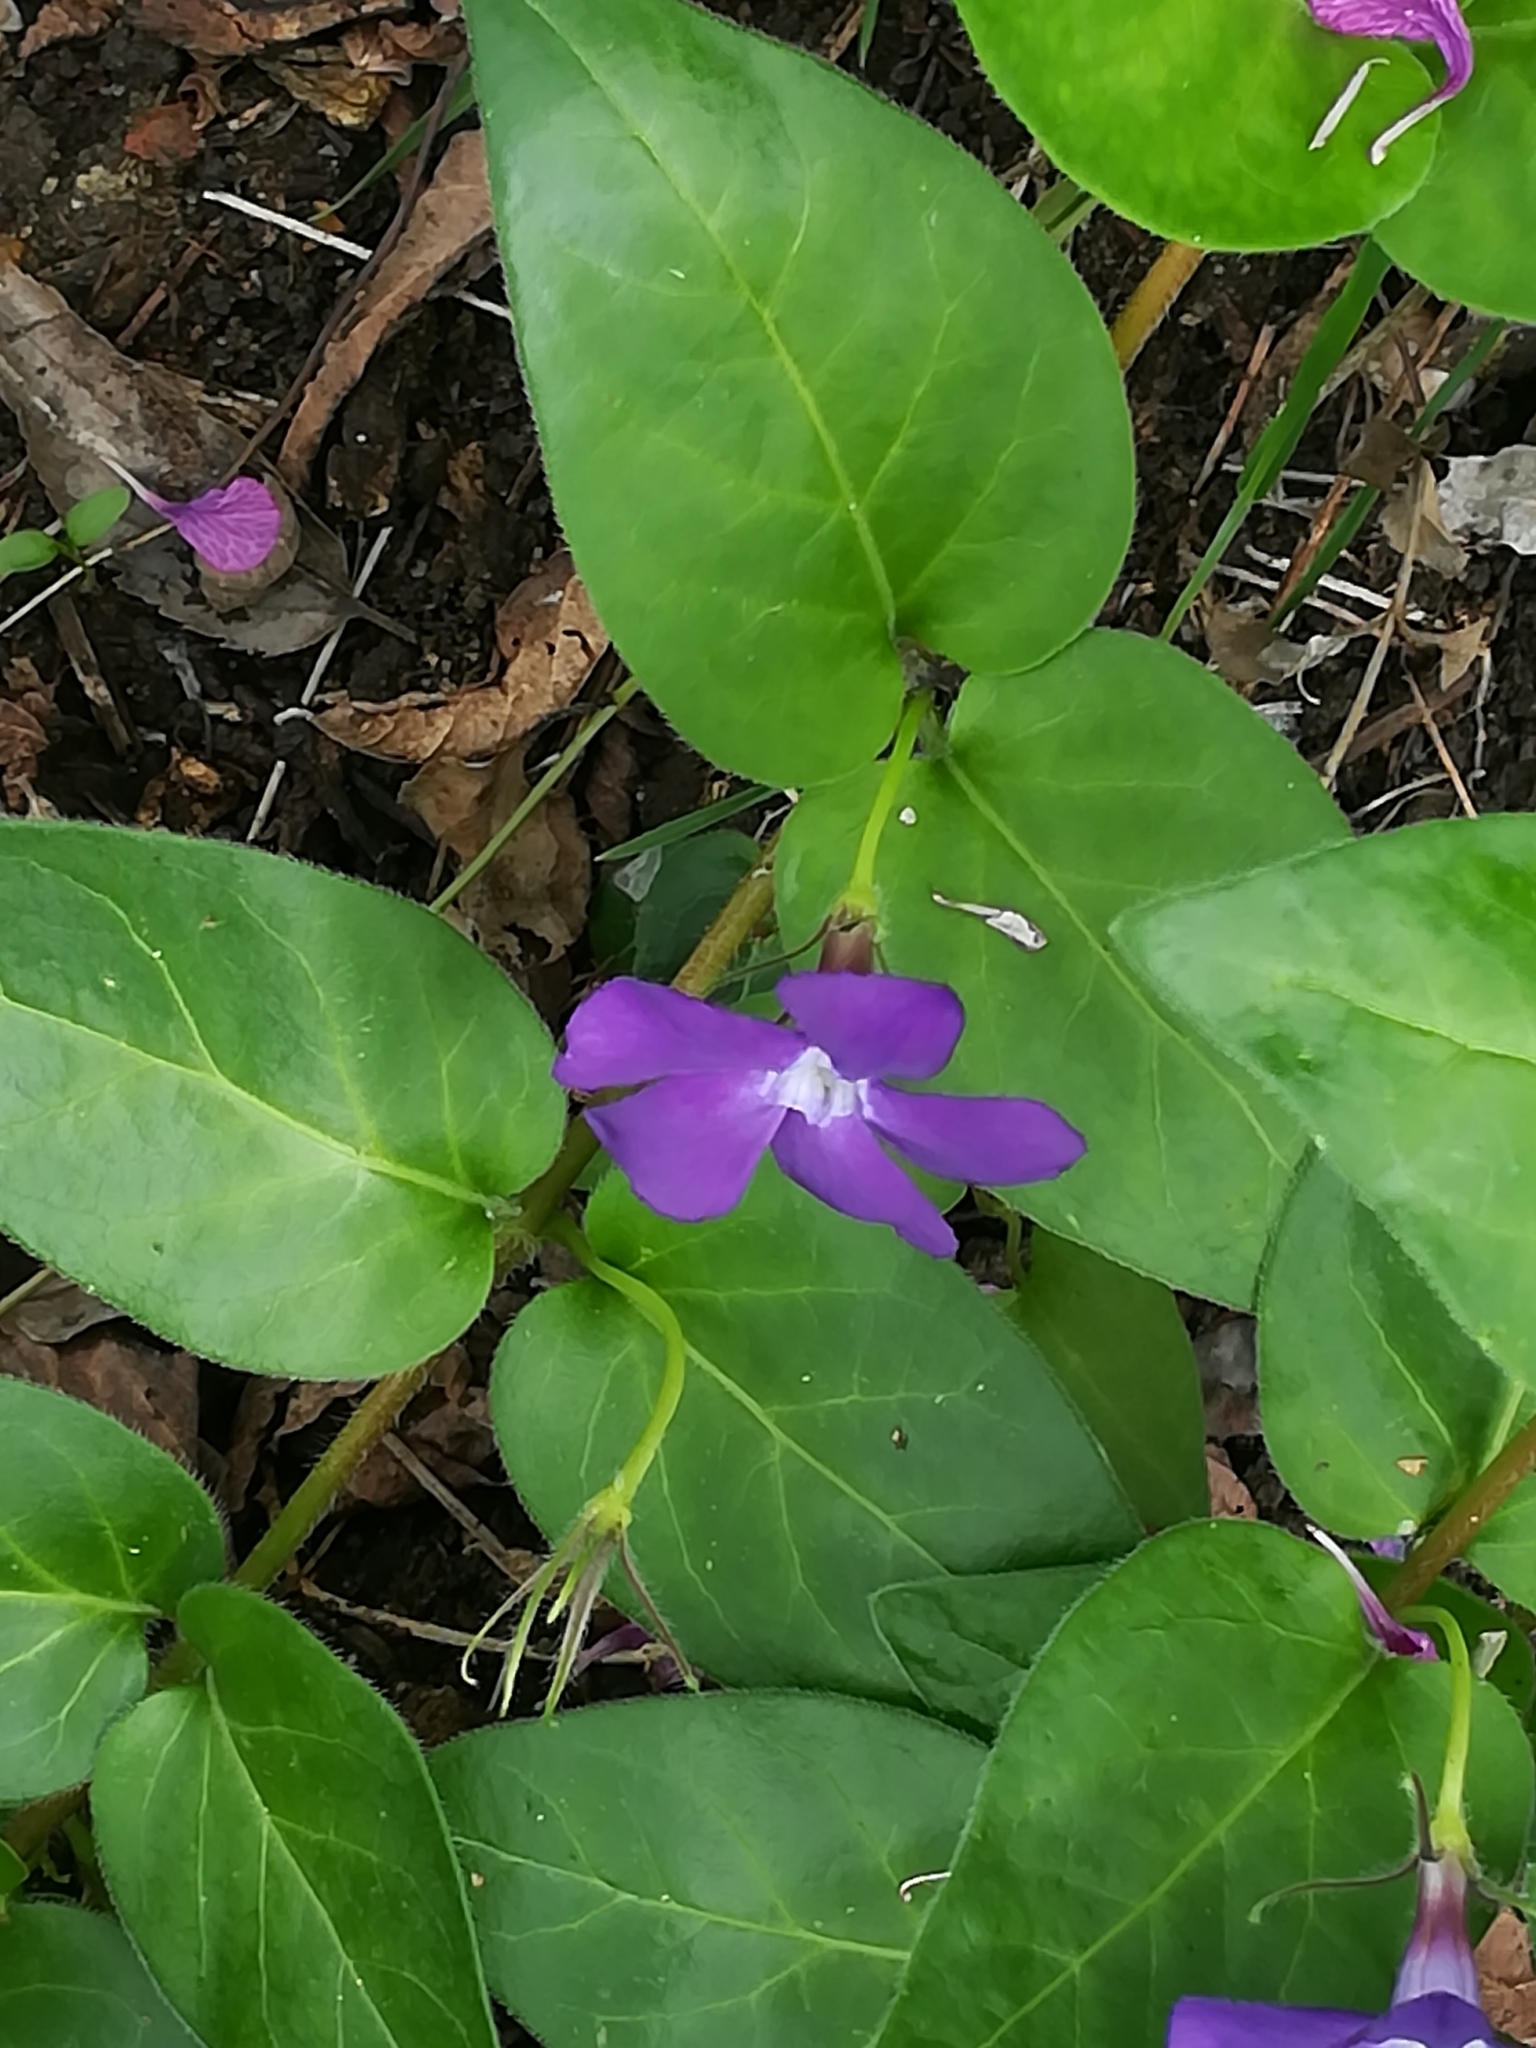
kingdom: Plantae
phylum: Tracheophyta
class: Magnoliopsida
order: Gentianales
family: Apocynaceae
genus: Vinca
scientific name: Vinca major
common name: Greater periwinkle
